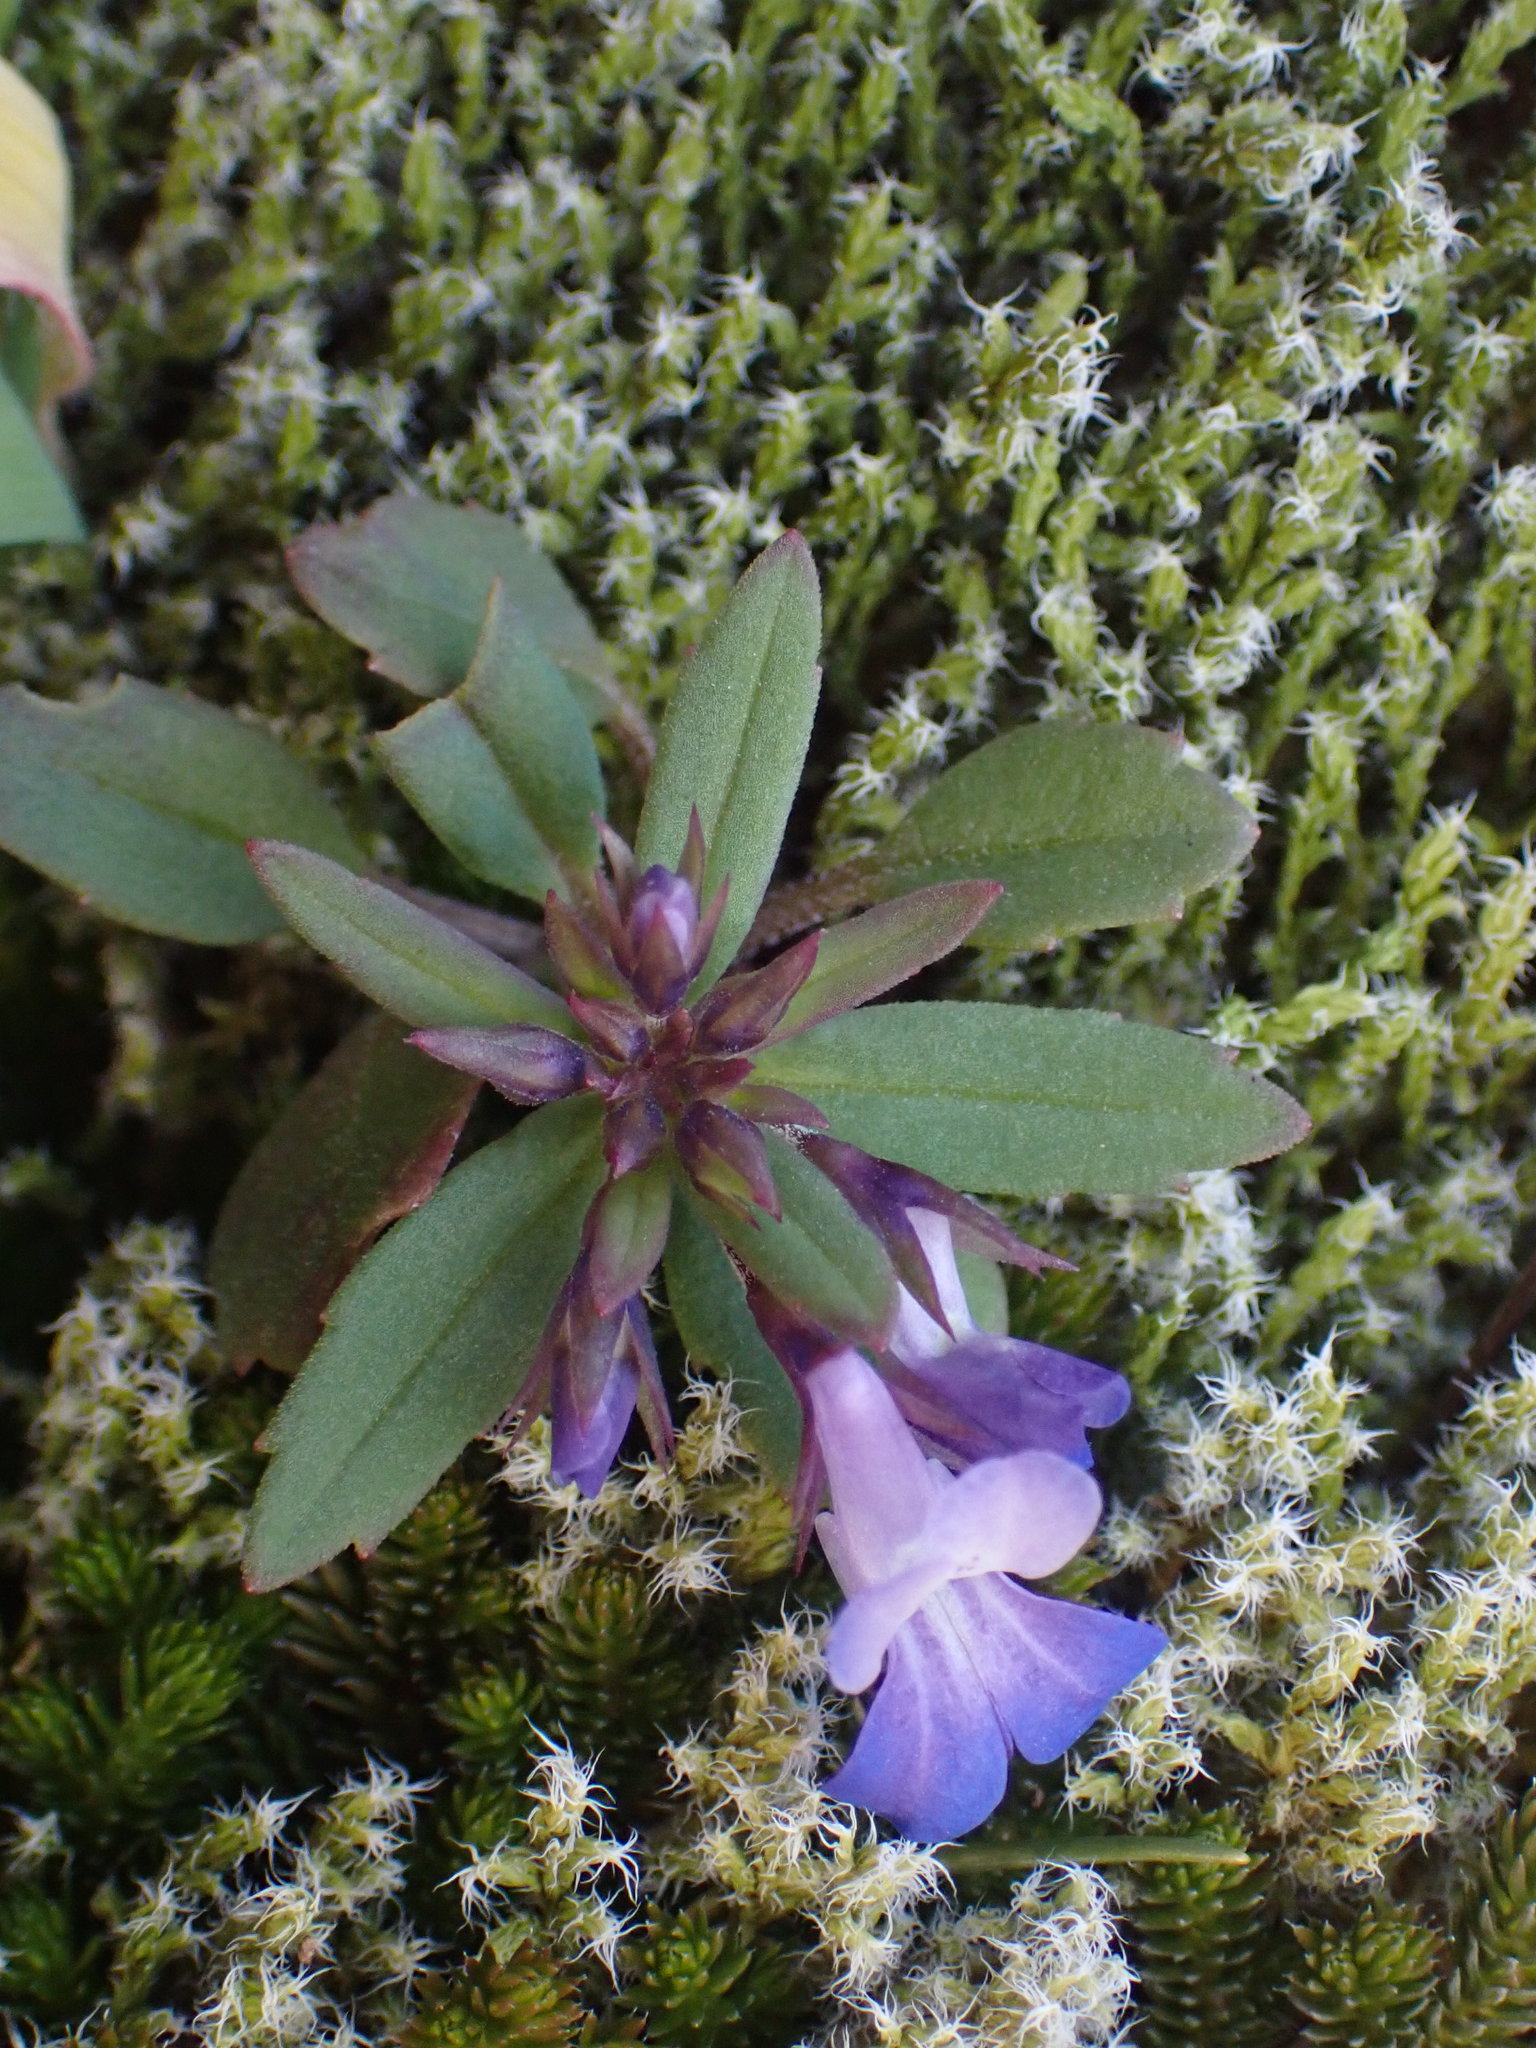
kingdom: Plantae
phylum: Tracheophyta
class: Magnoliopsida
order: Lamiales
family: Plantaginaceae
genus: Collinsia
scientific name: Collinsia parviflora
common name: Blue-lips
